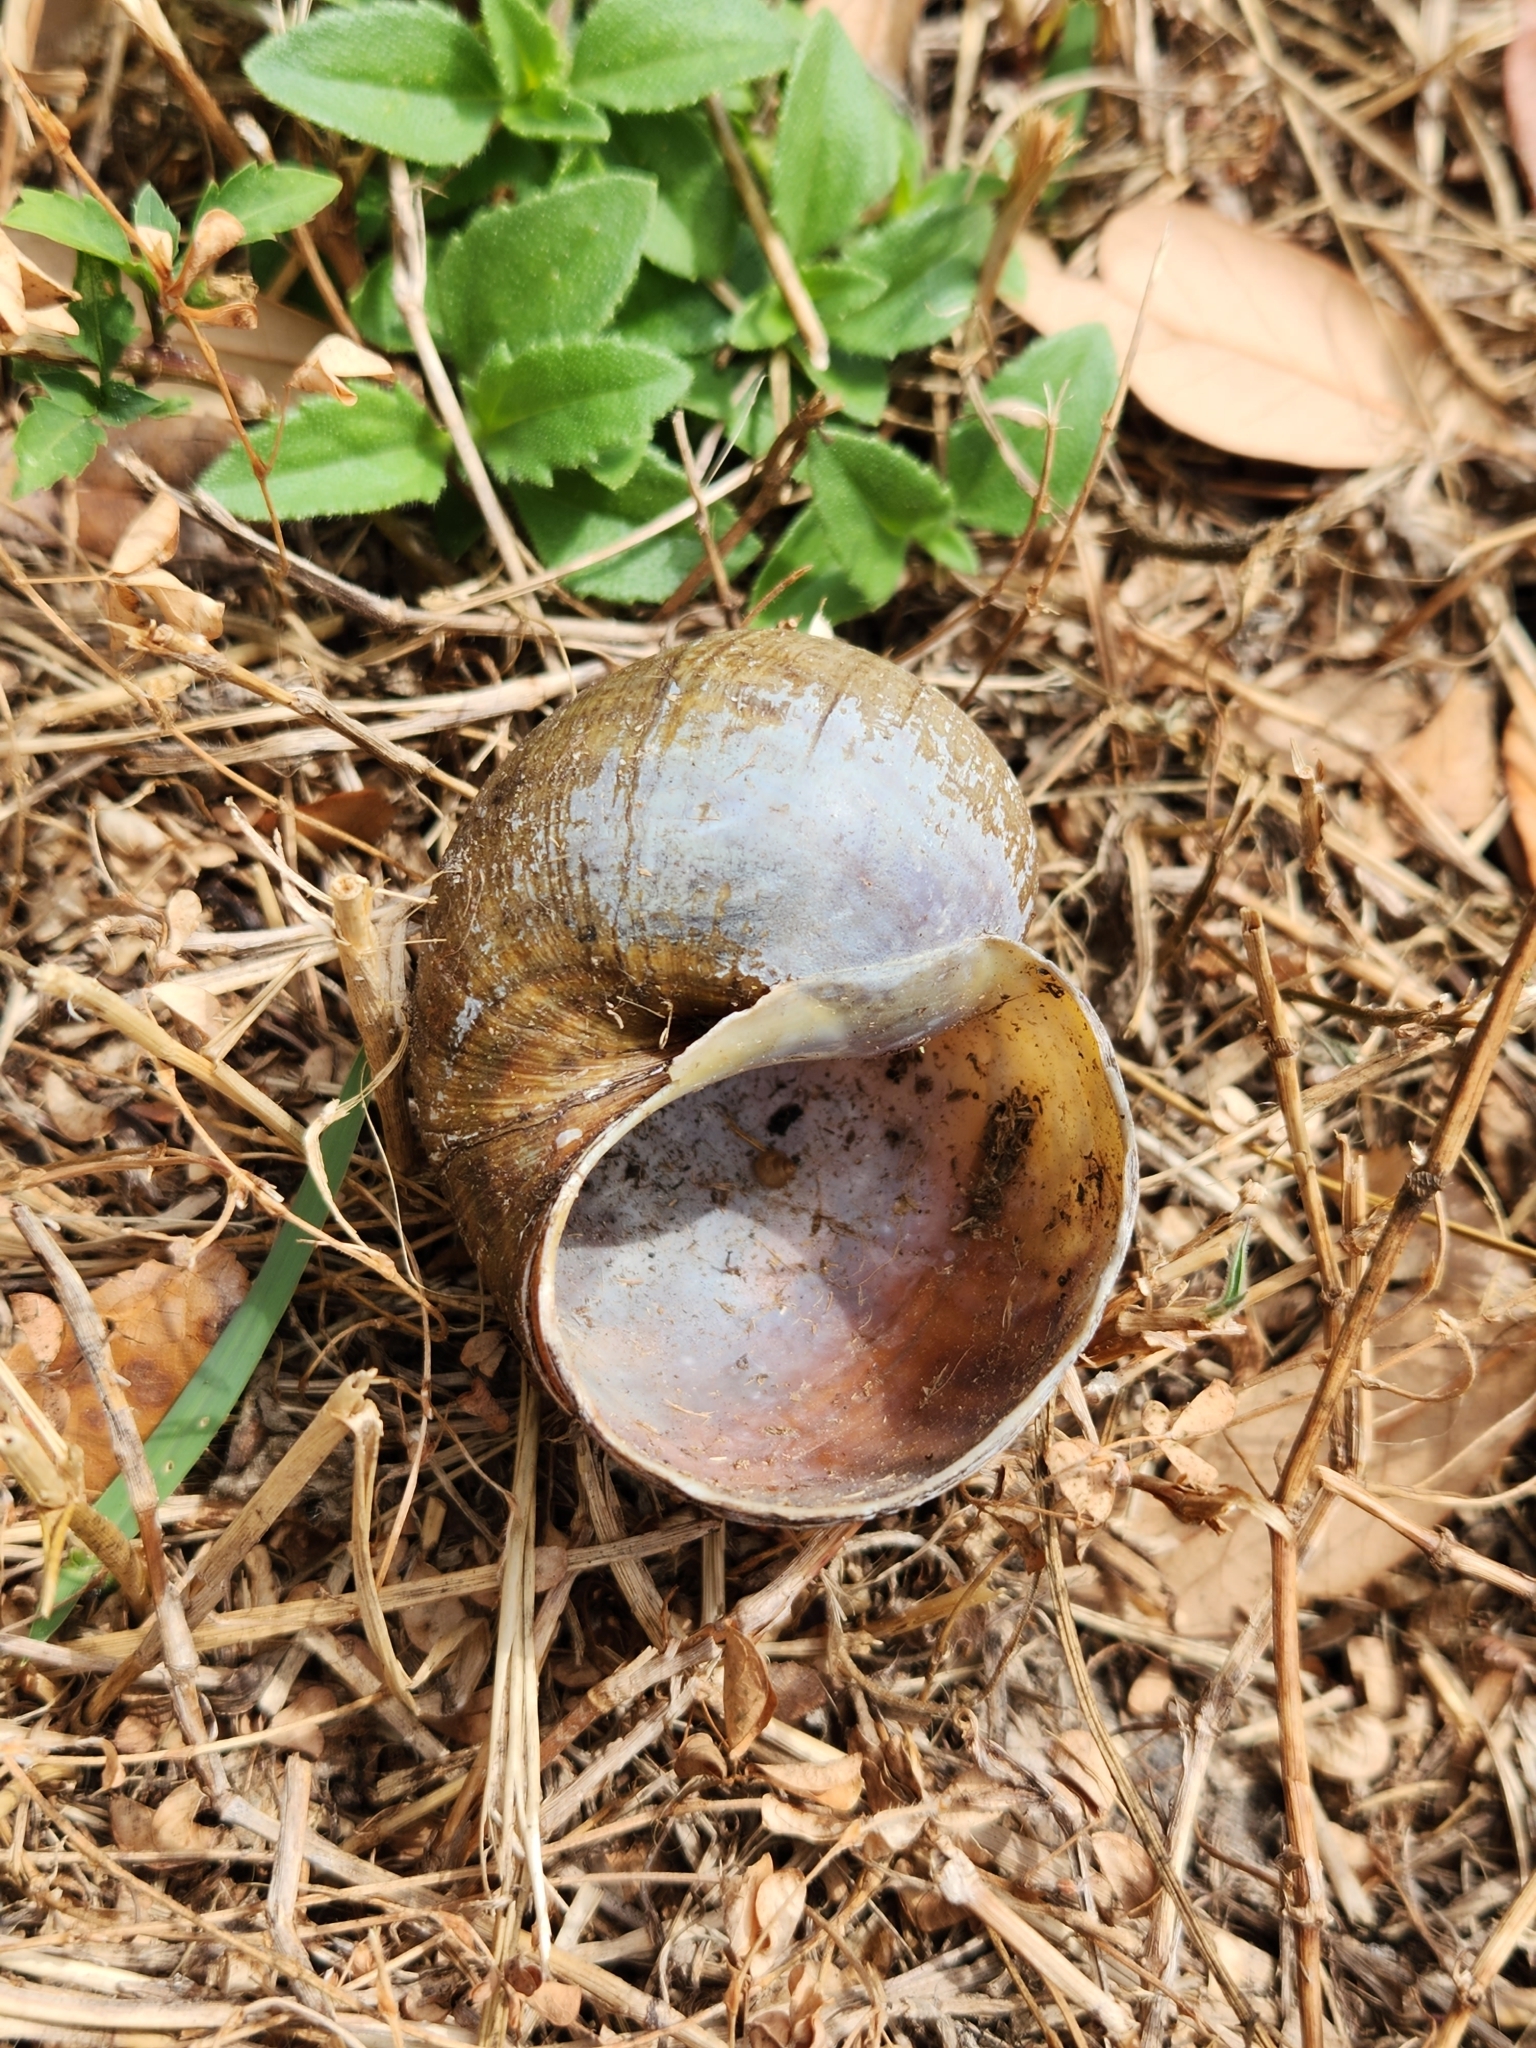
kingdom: Animalia
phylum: Mollusca
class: Gastropoda
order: Architaenioglossa
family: Ampullariidae
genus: Pomacea
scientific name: Pomacea maculata
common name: Giant applesnail
